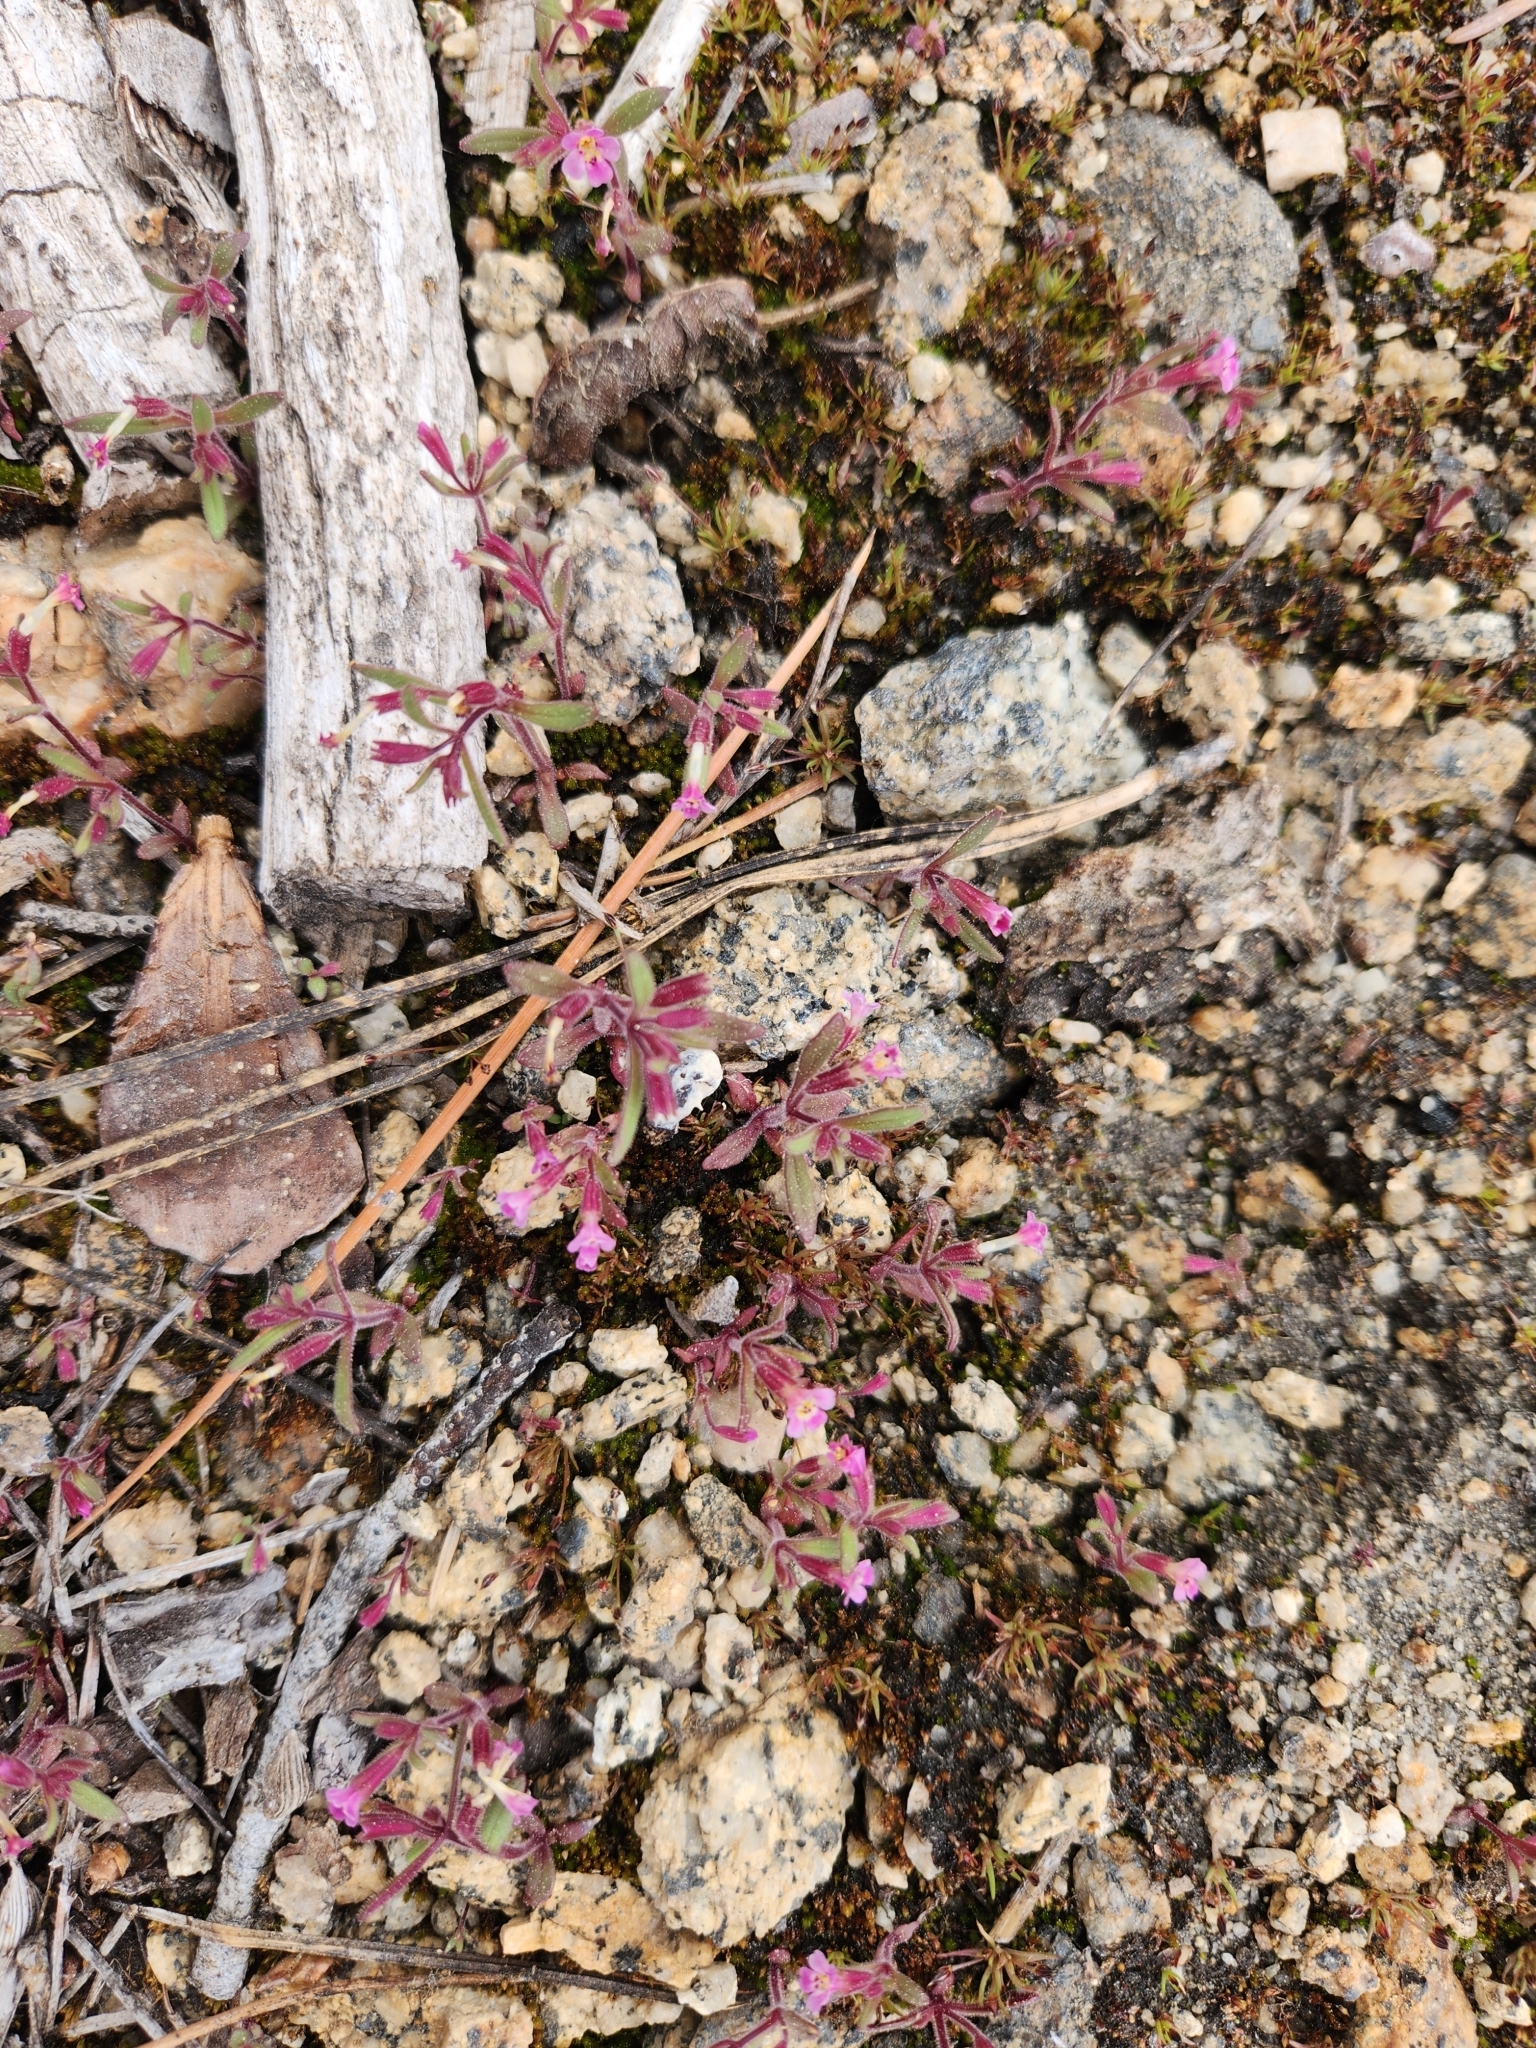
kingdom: Plantae
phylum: Tracheophyta
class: Magnoliopsida
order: Lamiales
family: Phrymaceae
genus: Erythranthe
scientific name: Erythranthe breweri
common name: Brewer's monkeyflower
